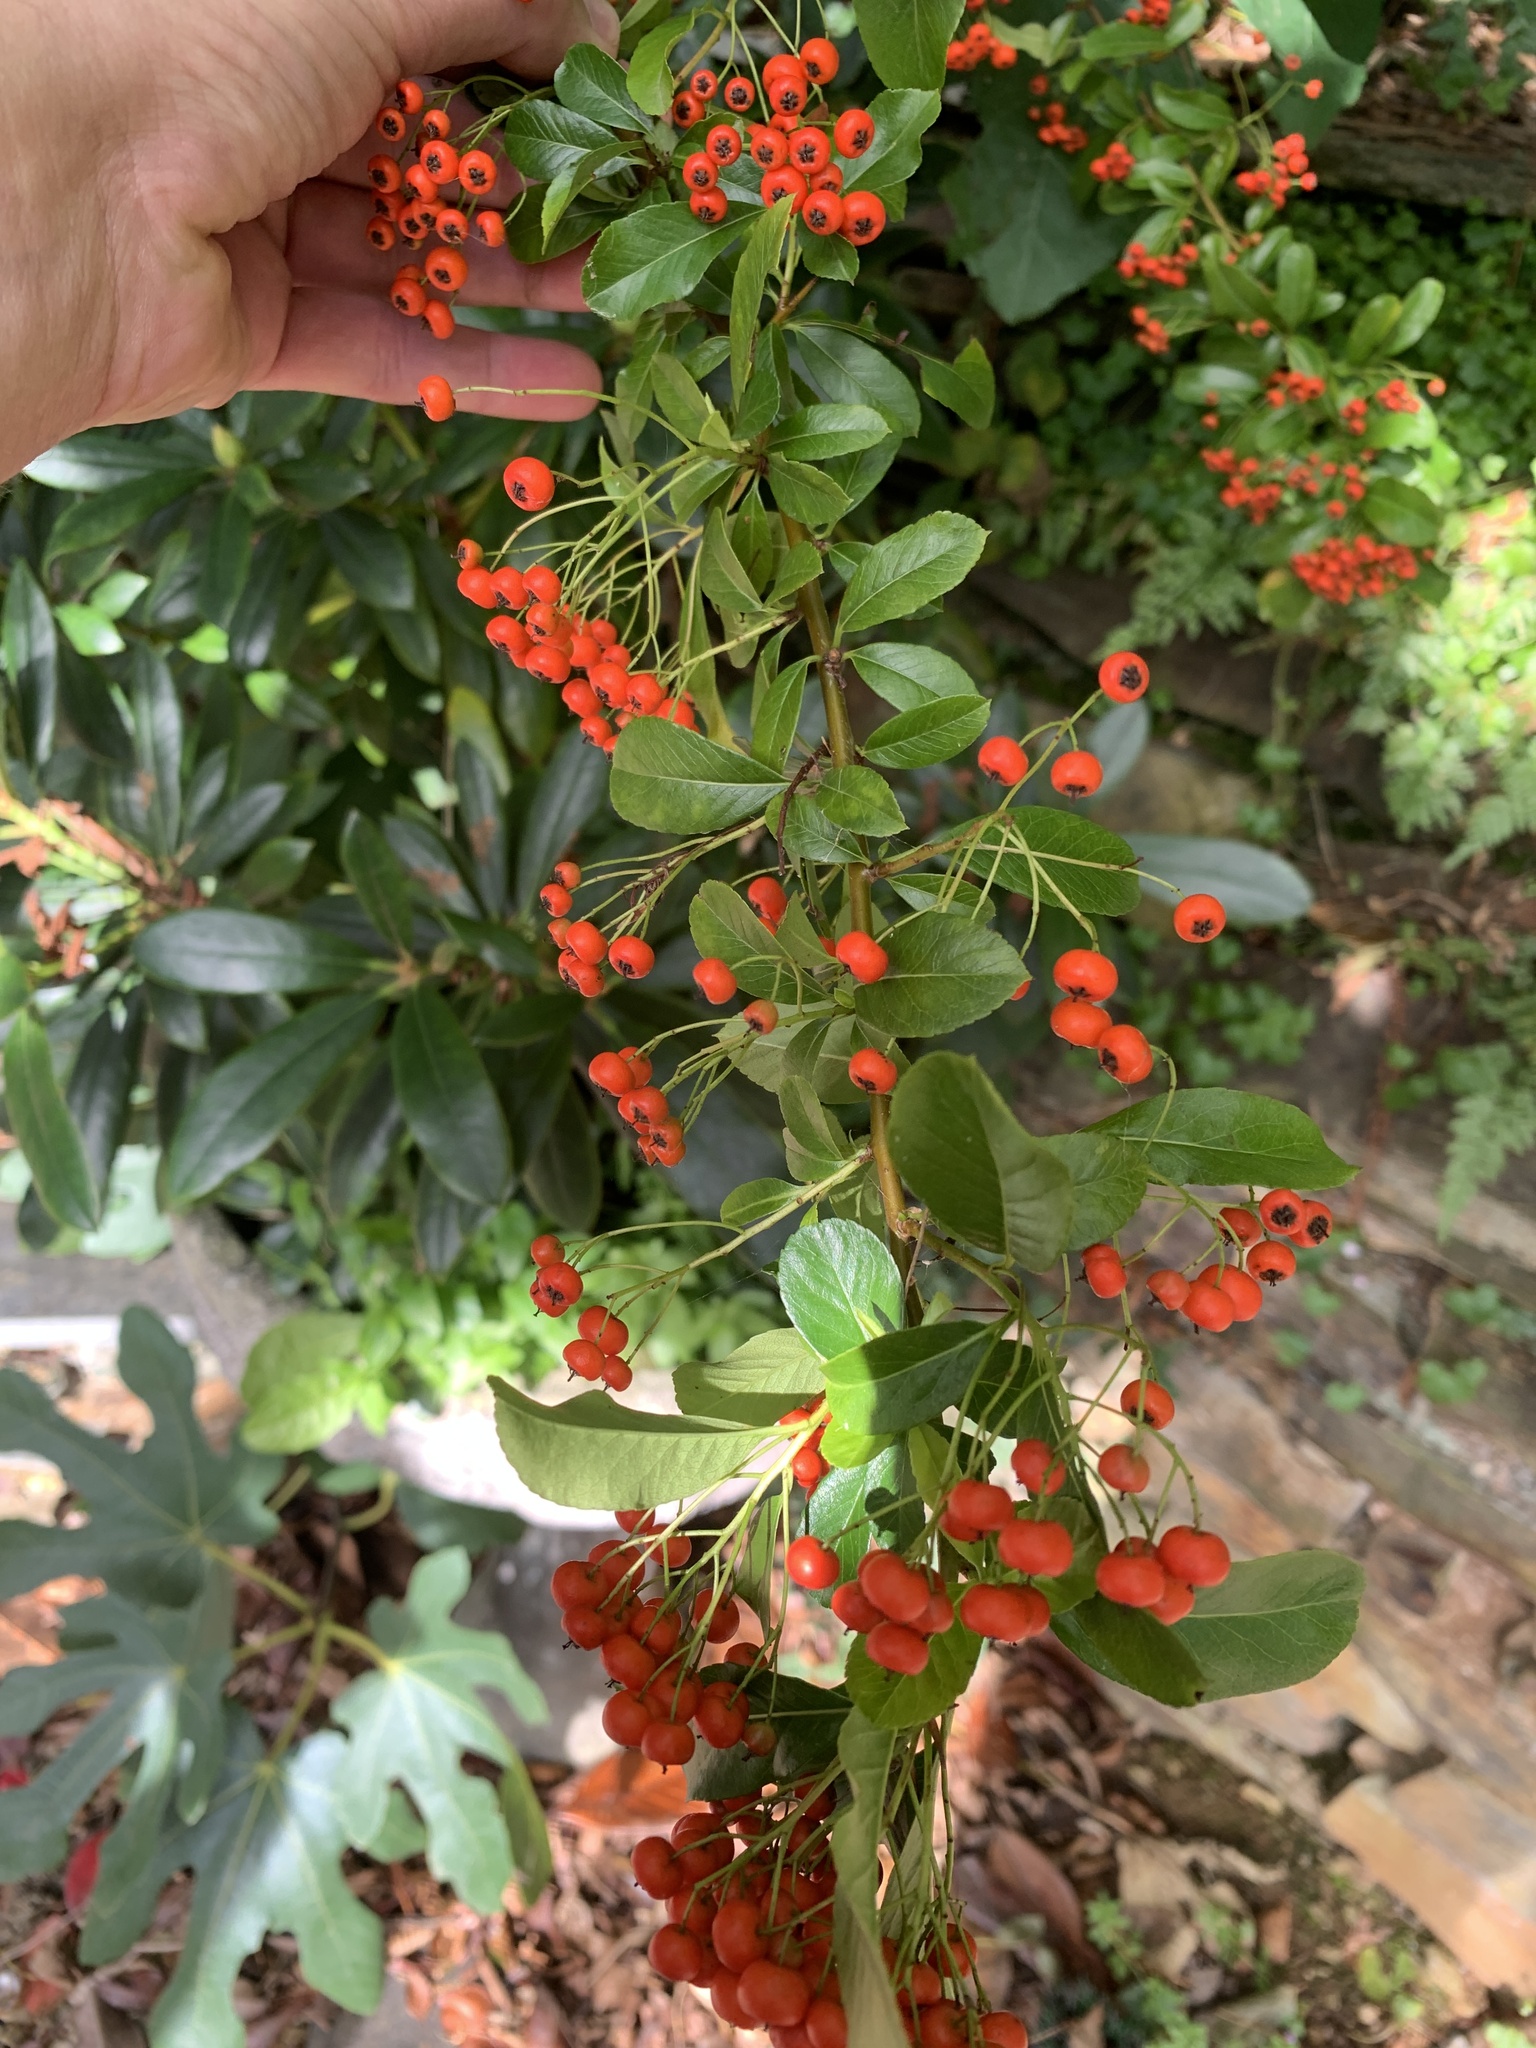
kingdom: Plantae
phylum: Tracheophyta
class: Magnoliopsida
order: Rosales
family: Rosaceae
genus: Pyracantha
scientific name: Pyracantha coccinea
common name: Firethorn
